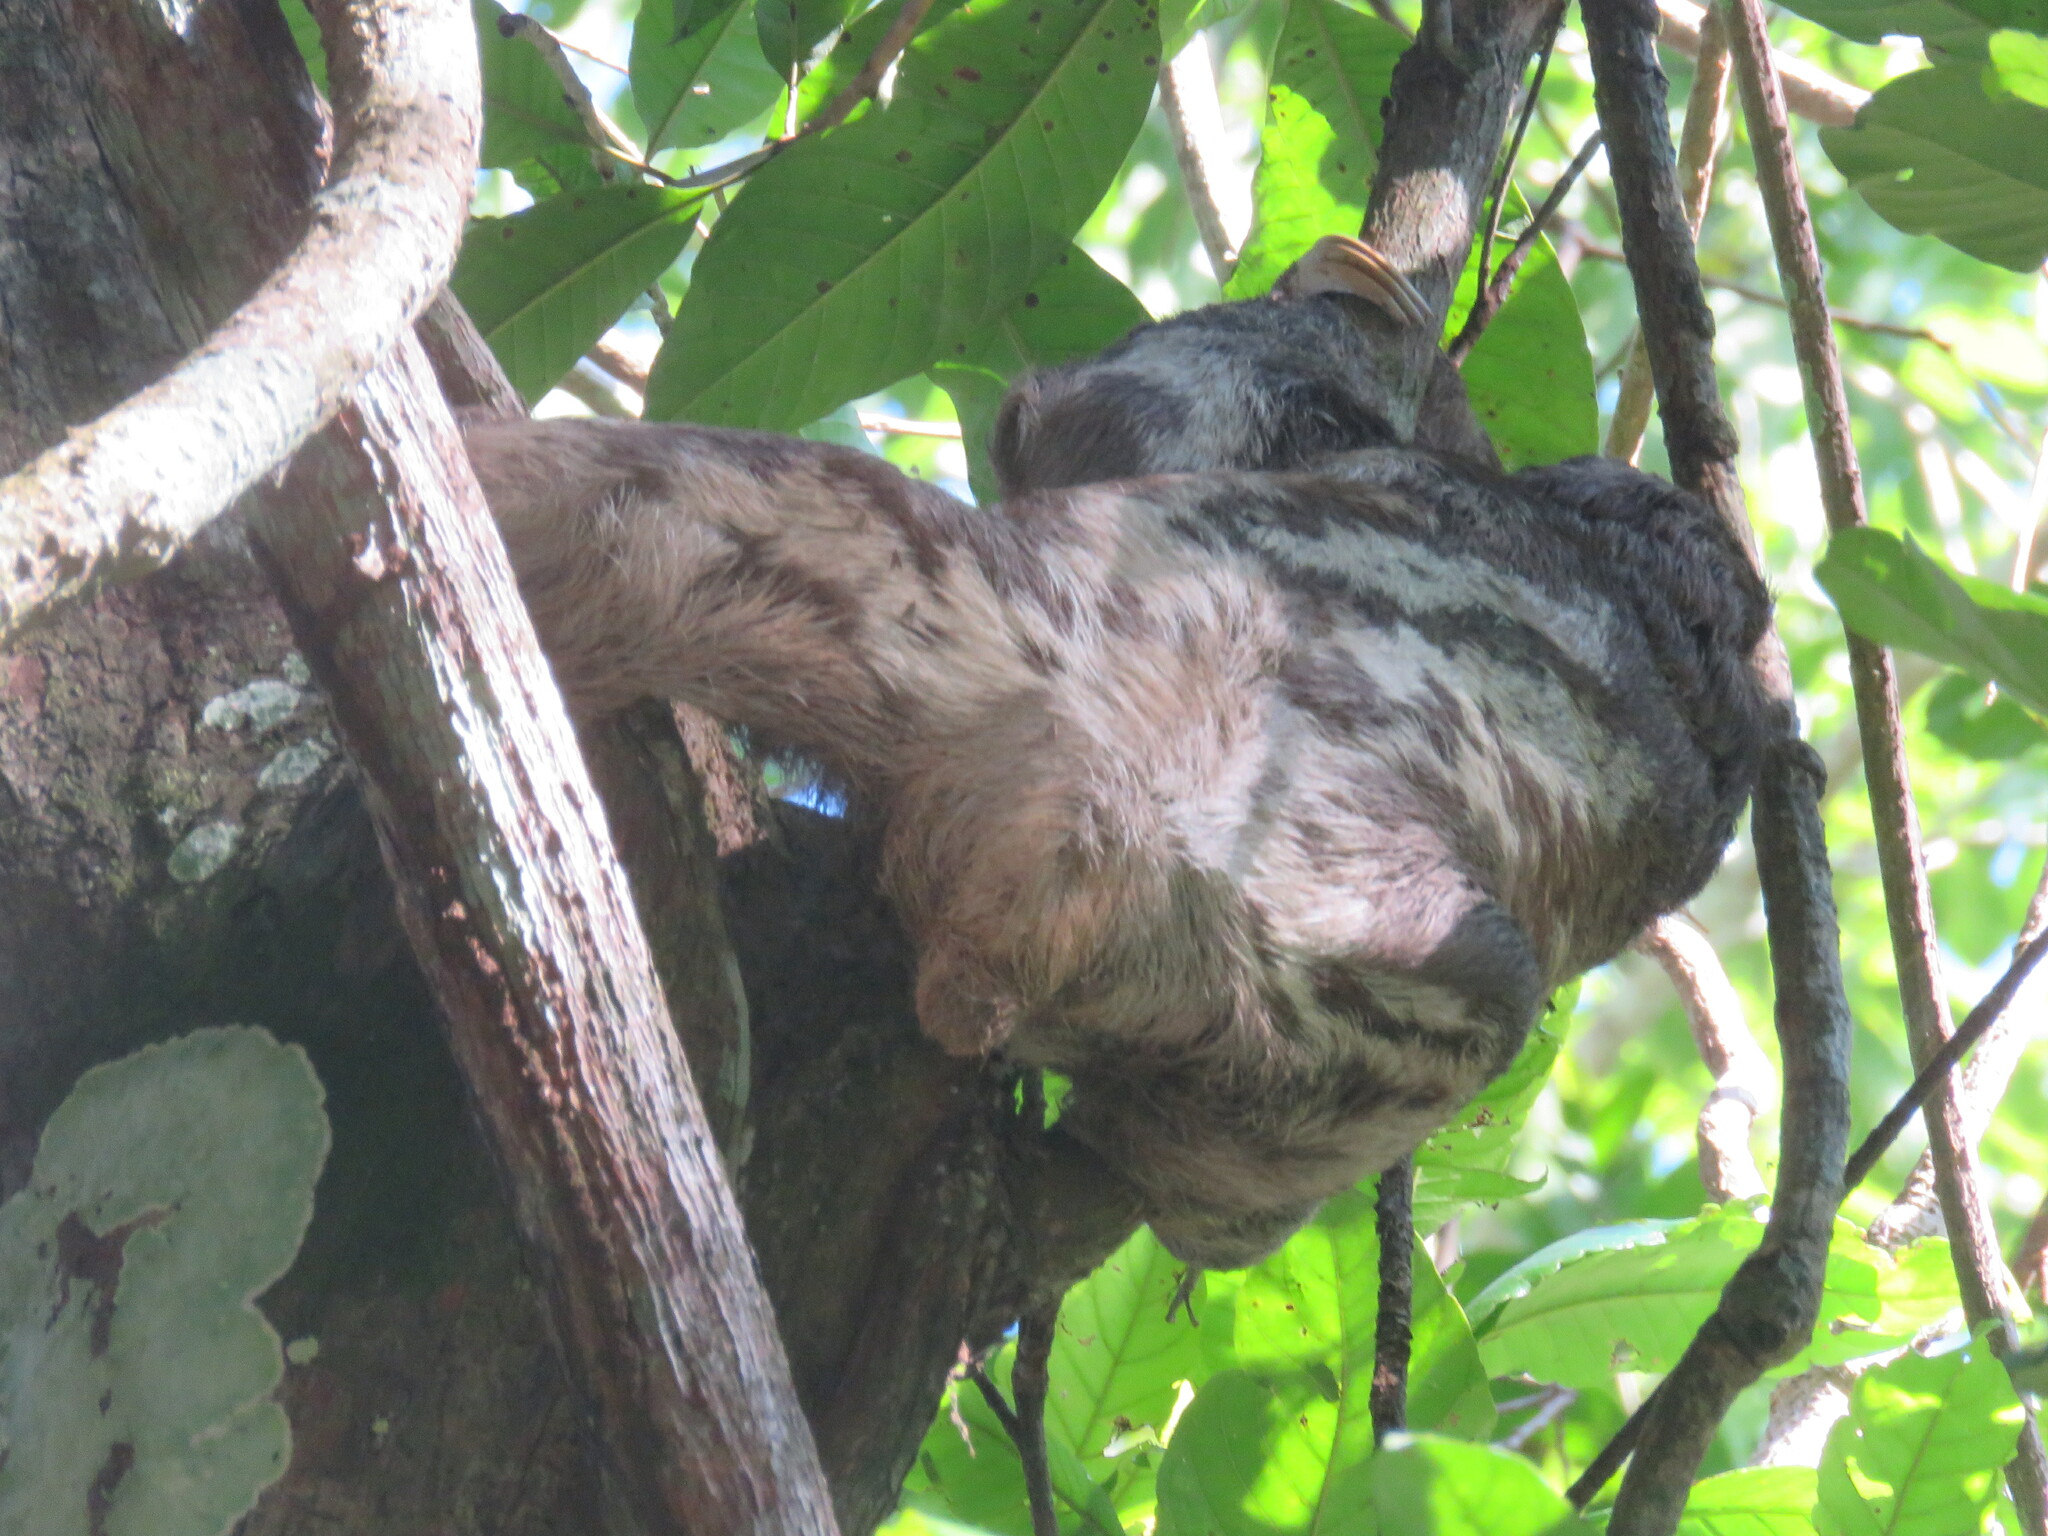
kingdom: Animalia
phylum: Chordata
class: Mammalia
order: Pilosa
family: Bradypodidae
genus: Bradypus
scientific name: Bradypus variegatus
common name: Brown-throated three-toed sloth
